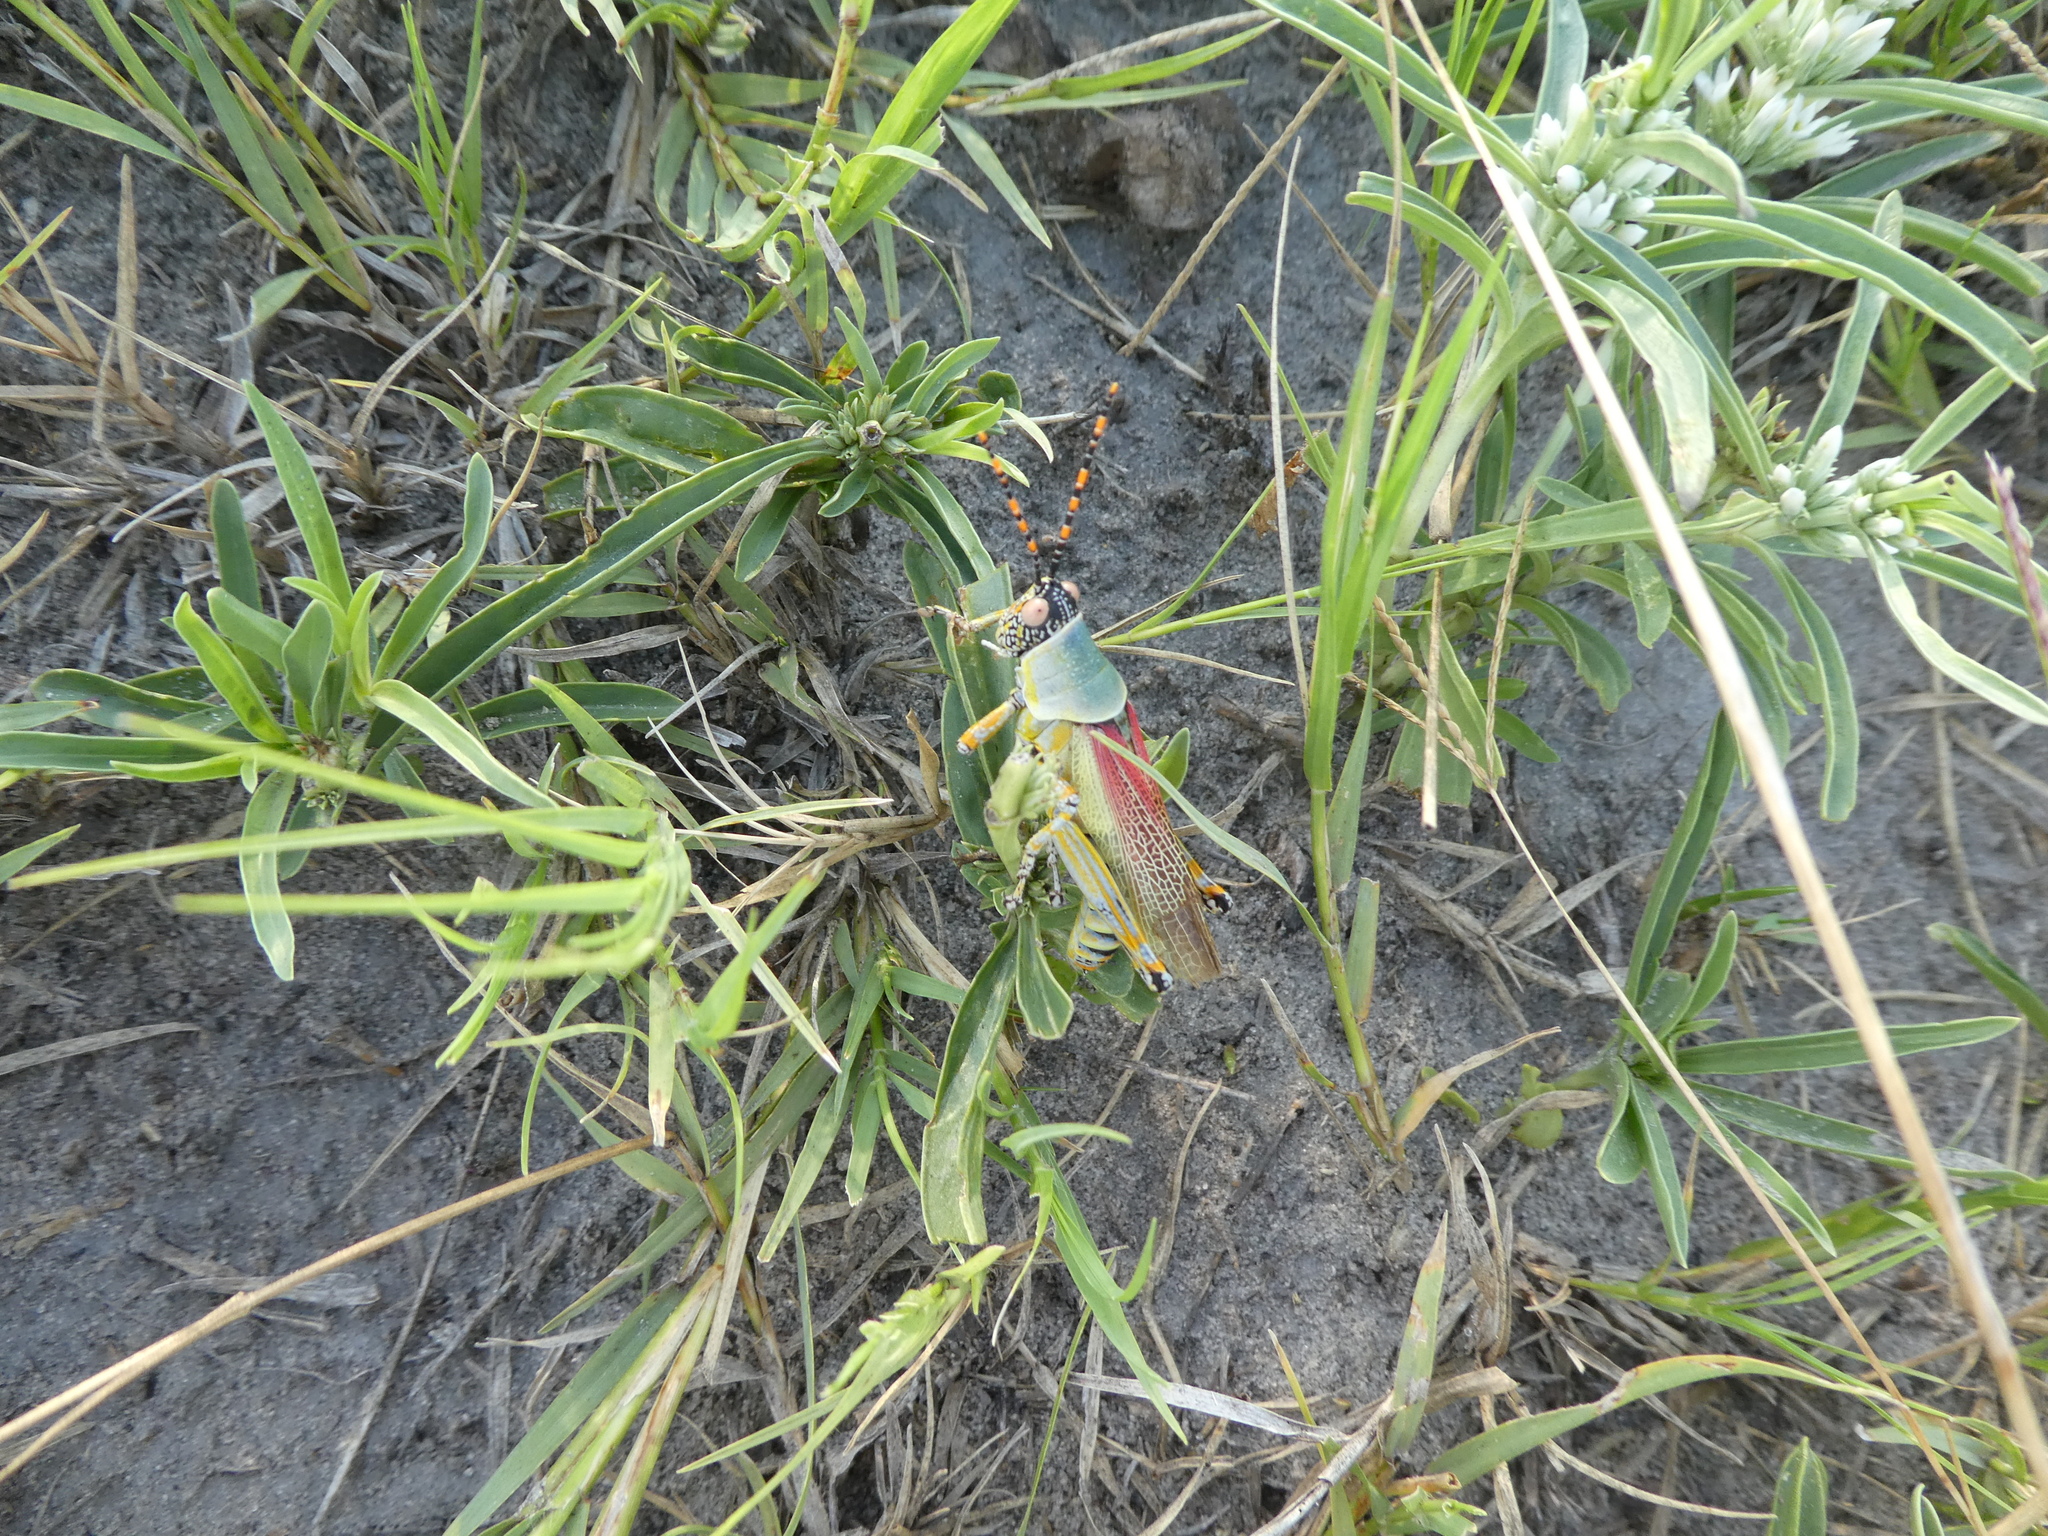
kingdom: Animalia
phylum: Arthropoda
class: Insecta
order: Orthoptera
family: Pyrgomorphidae
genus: Zonocerus
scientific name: Zonocerus elegans
